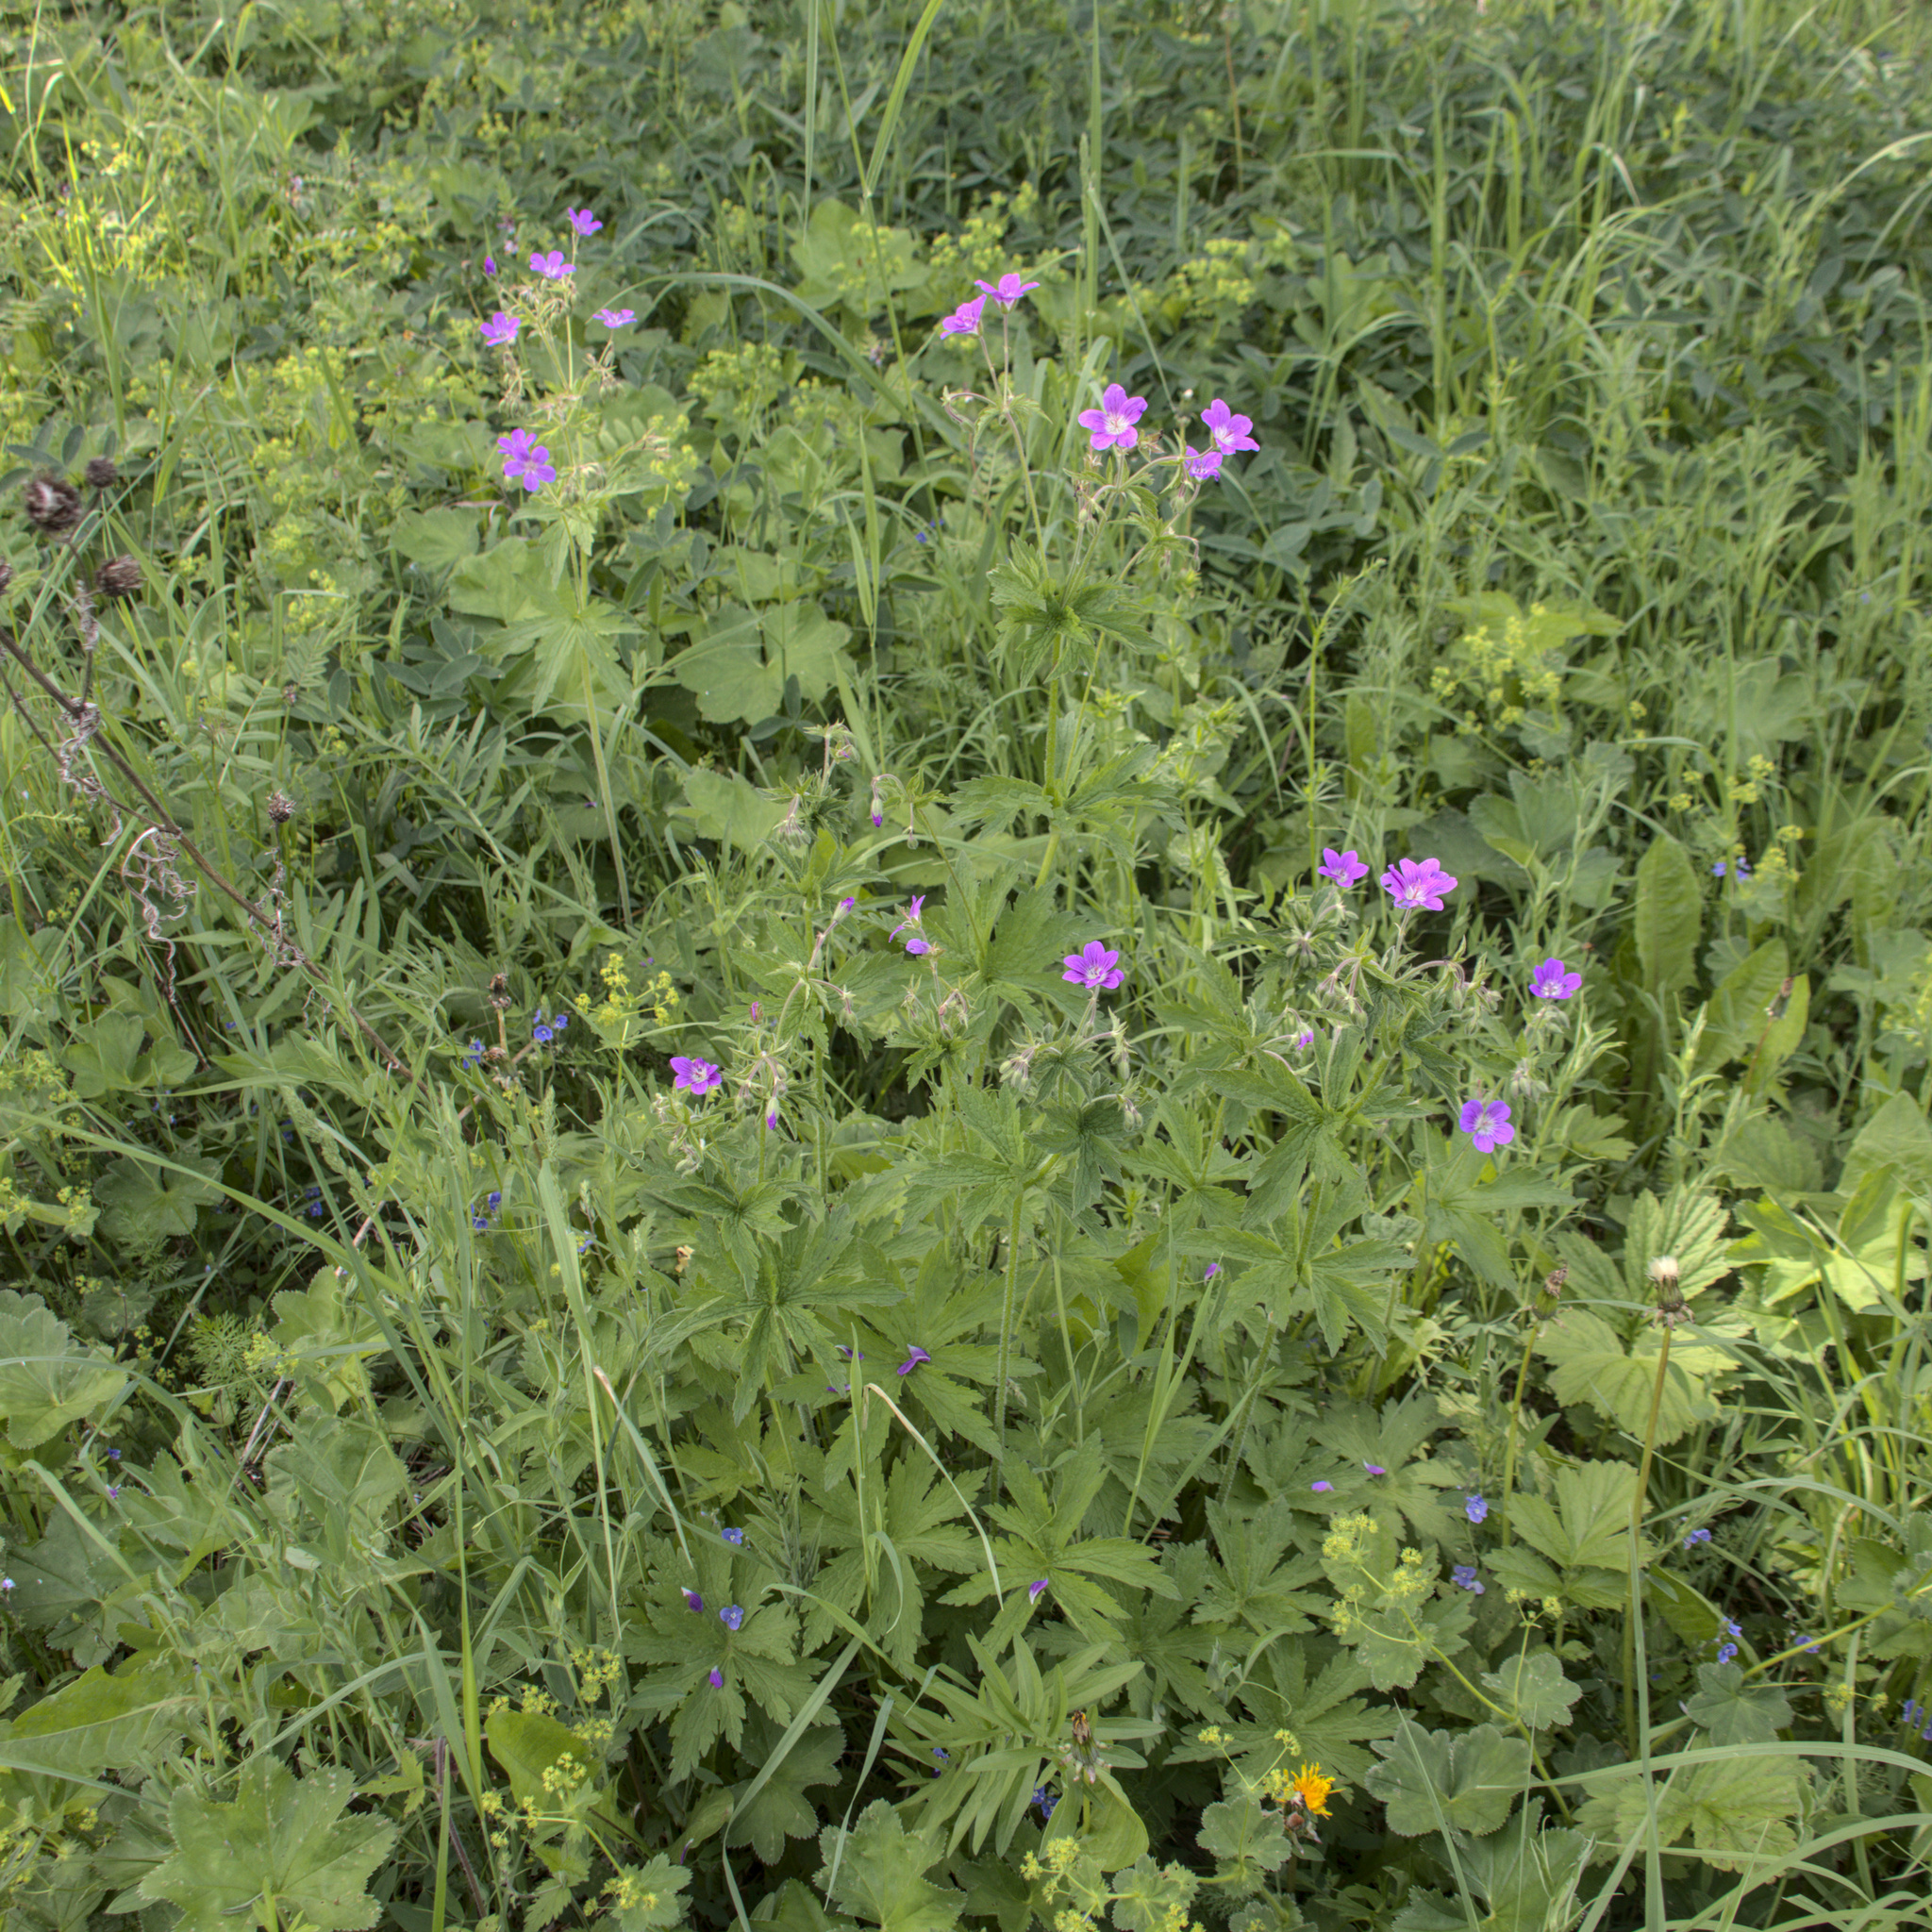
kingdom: Plantae
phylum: Tracheophyta
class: Magnoliopsida
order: Geraniales
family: Geraniaceae
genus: Geranium
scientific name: Geranium sylvaticum
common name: Wood crane's-bill
